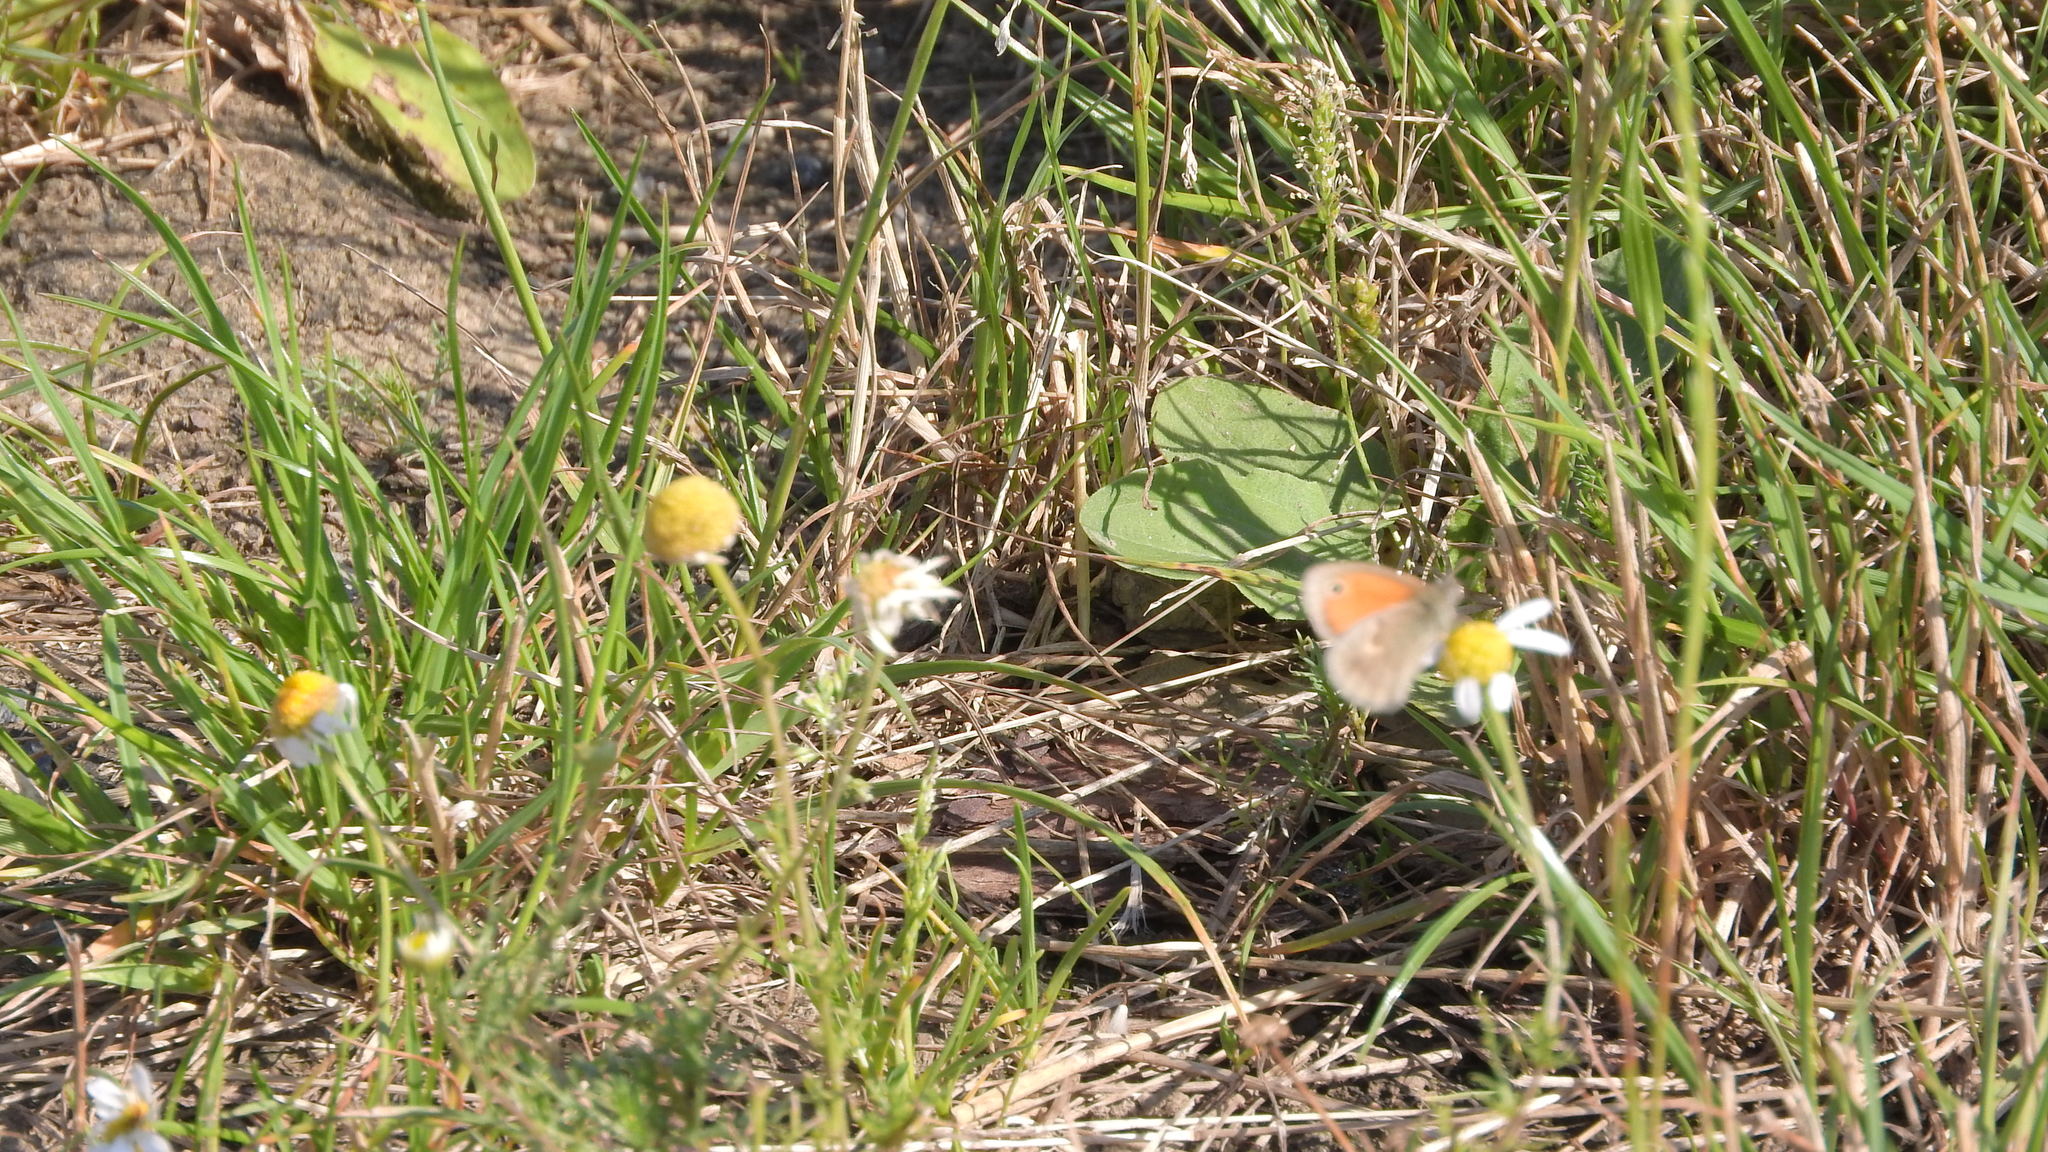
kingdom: Animalia
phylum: Arthropoda
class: Insecta
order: Lepidoptera
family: Nymphalidae
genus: Coenonympha
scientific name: Coenonympha pamphilus
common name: Small heath
